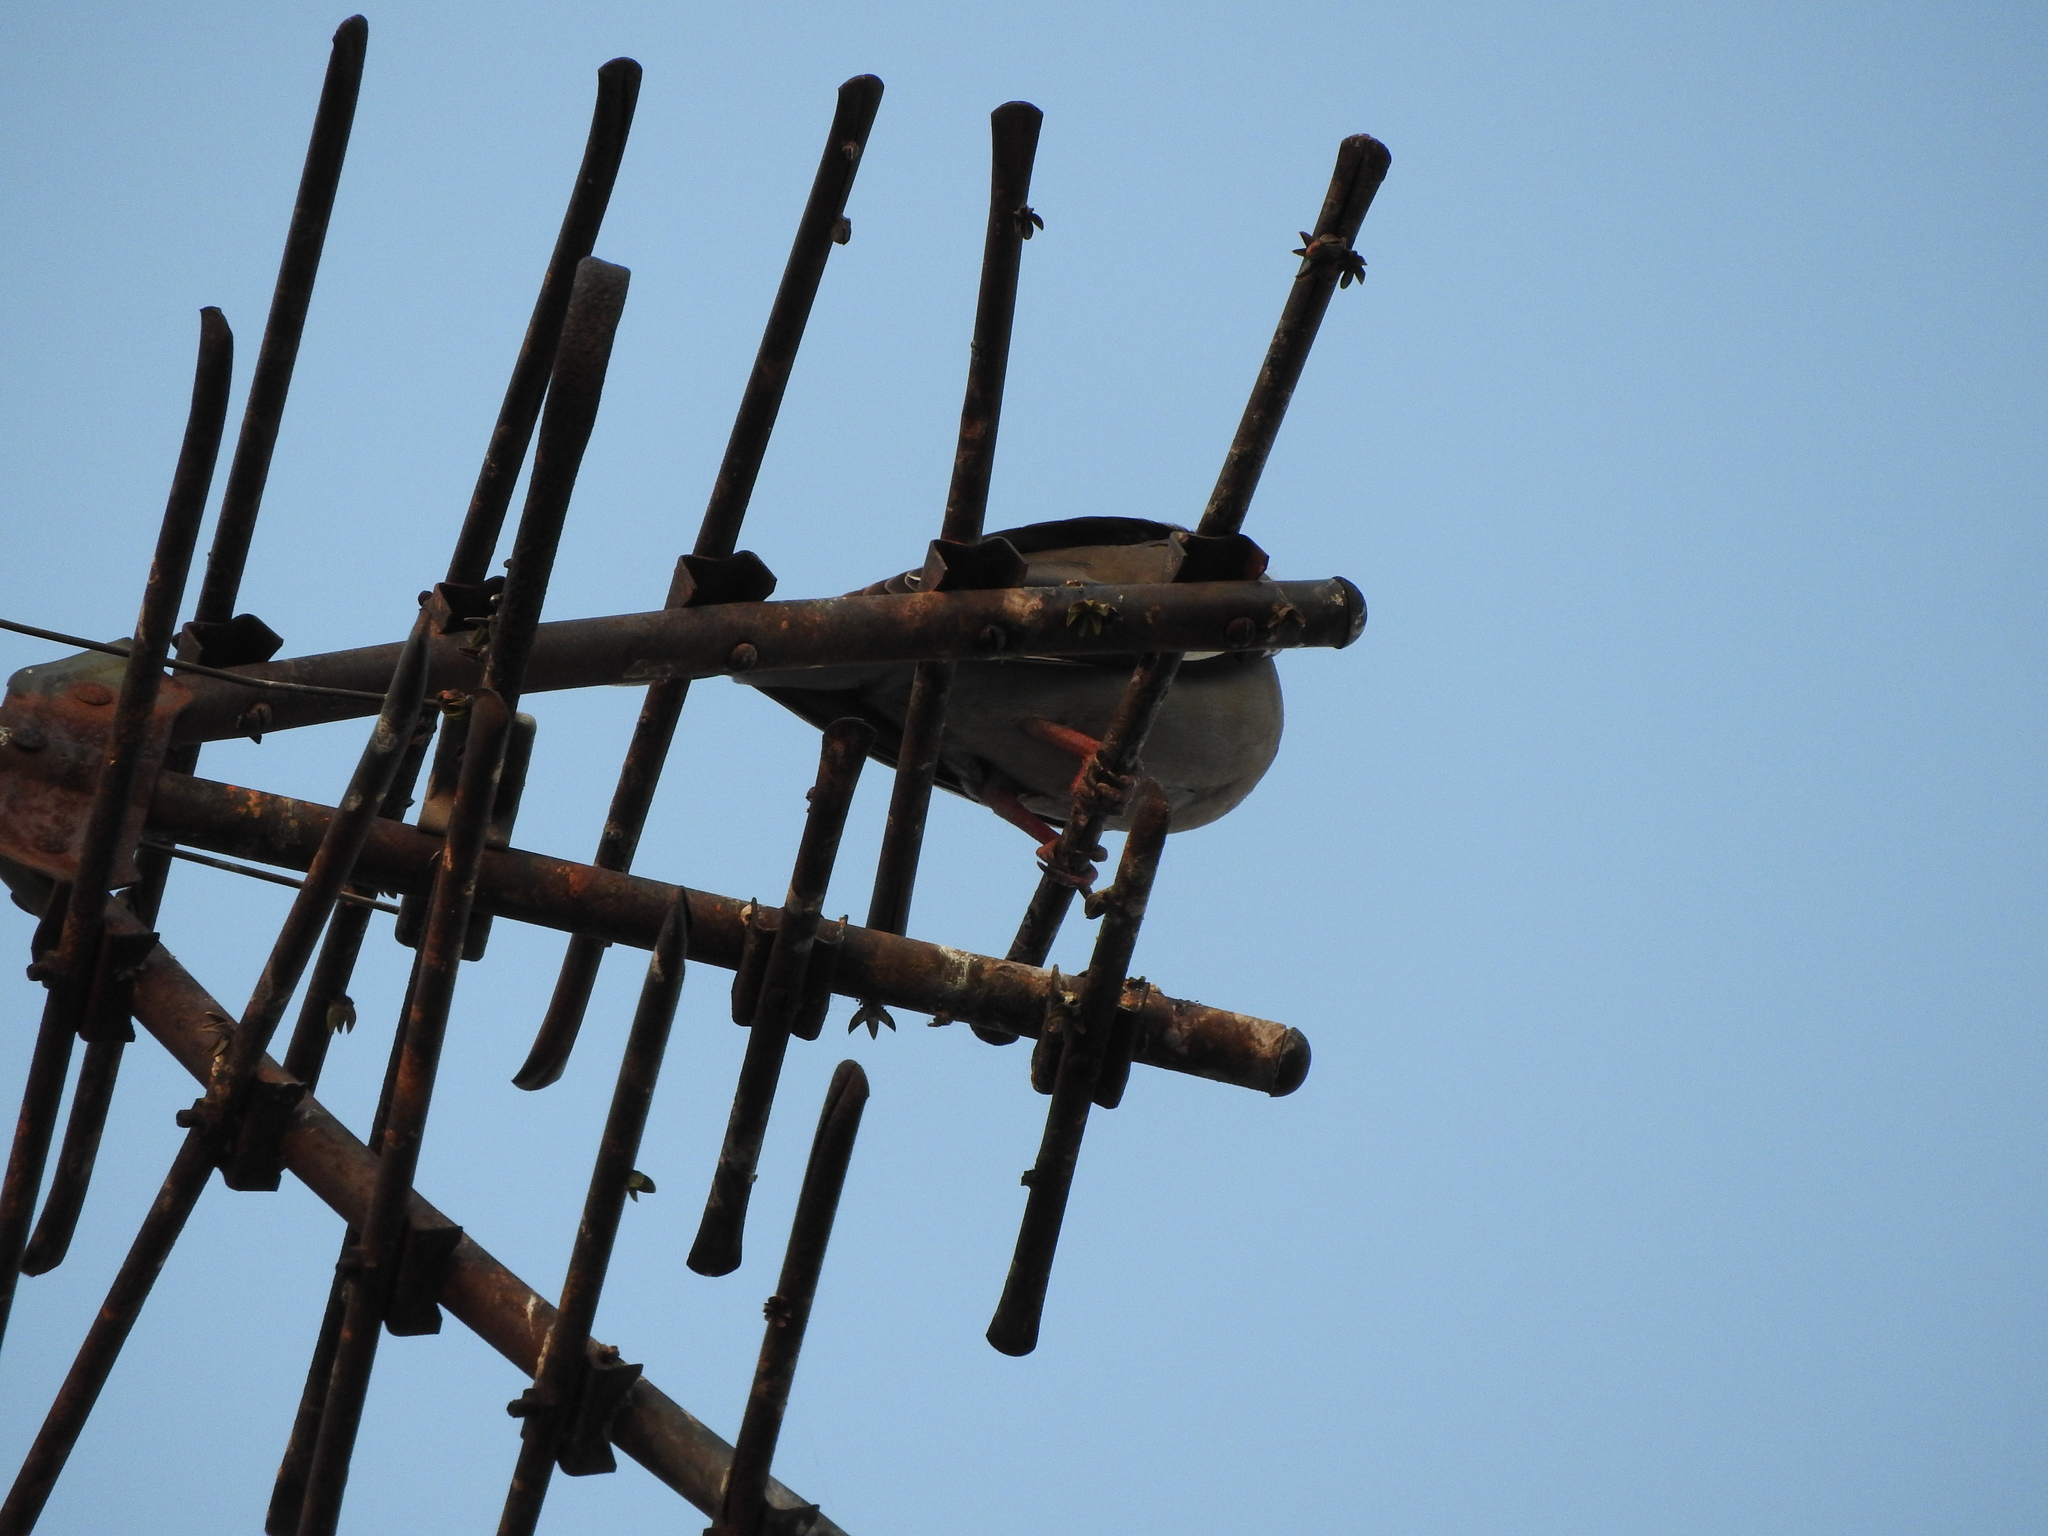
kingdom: Animalia
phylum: Chordata
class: Aves
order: Columbiformes
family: Columbidae
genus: Zenaida
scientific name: Zenaida asiatica
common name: White-winged dove
